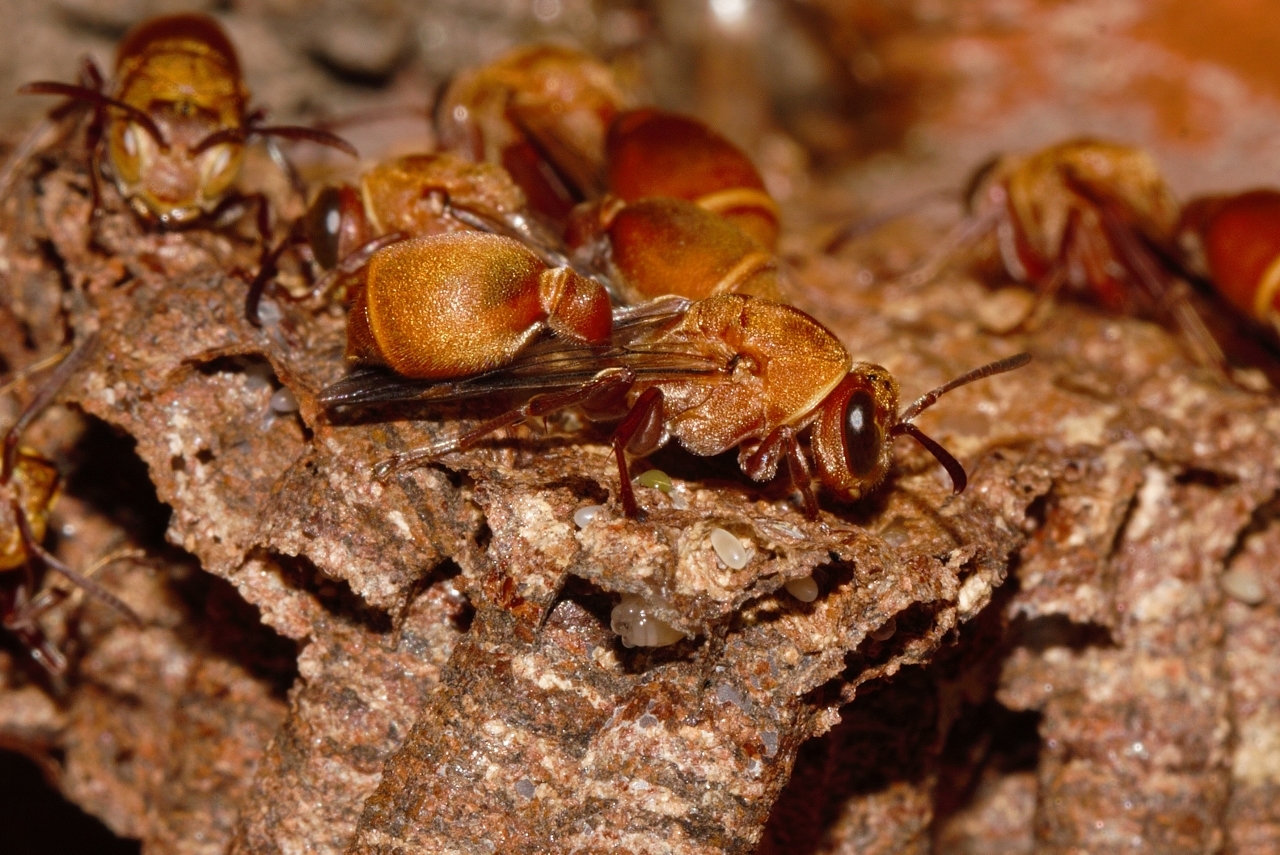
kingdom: Animalia
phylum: Arthropoda
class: Insecta
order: Hymenoptera
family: Vespidae
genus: Ropalidia
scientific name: Ropalidia distigma
